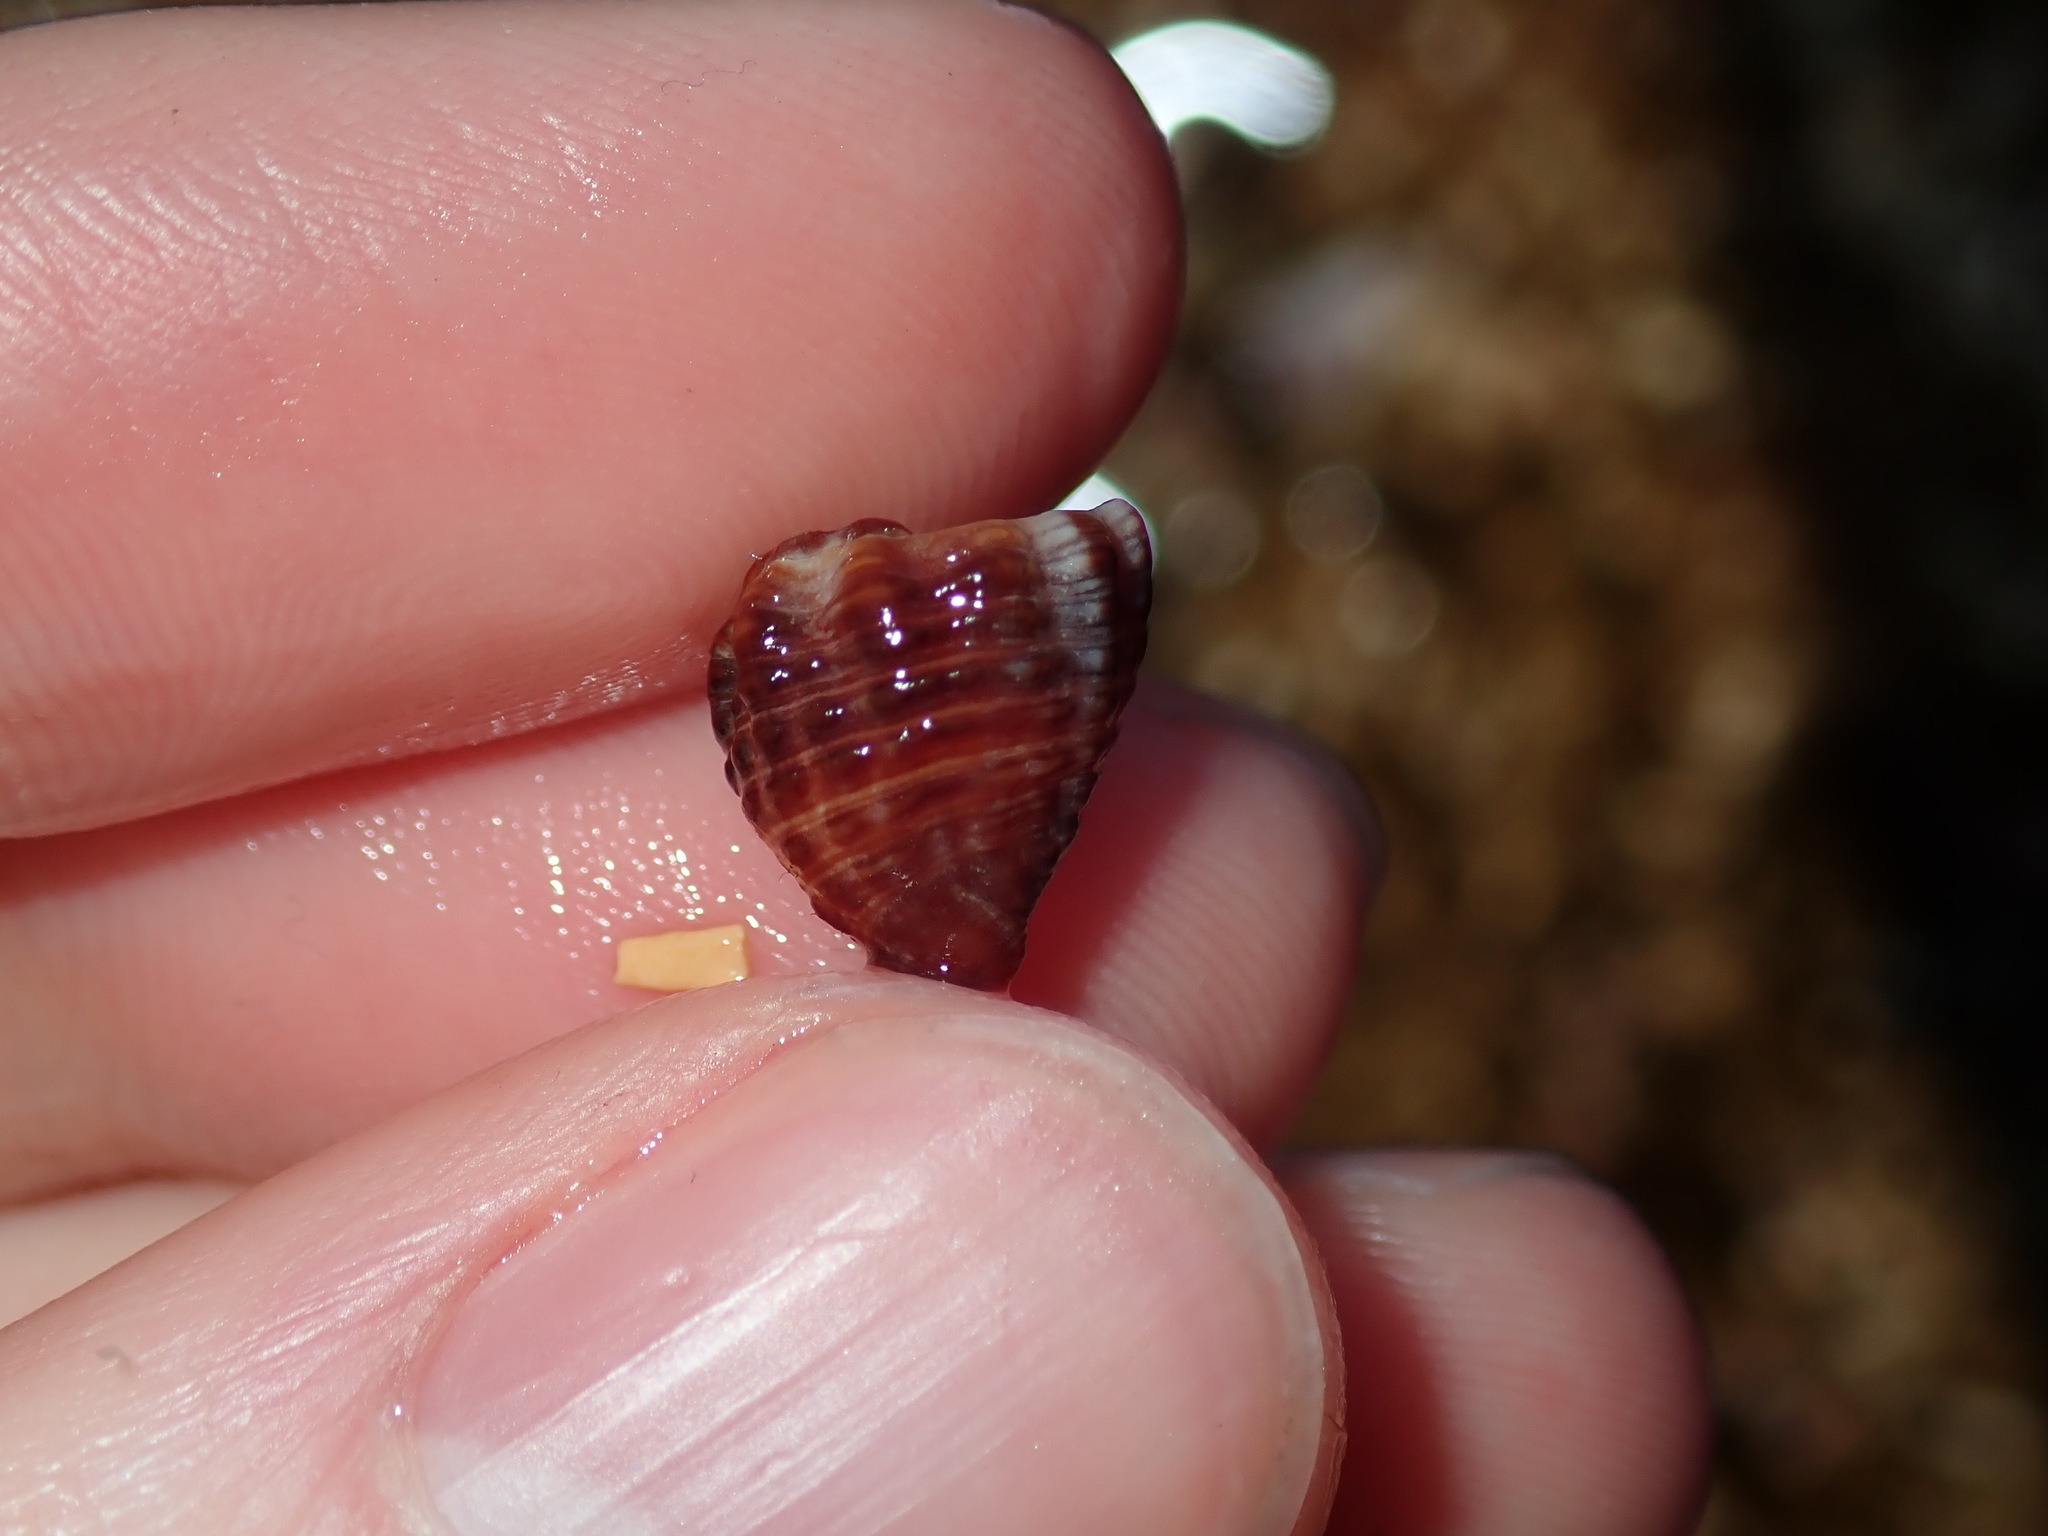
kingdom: Animalia
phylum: Mollusca
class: Gastropoda
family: Batillariidae
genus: Batillaria
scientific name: Batillaria australis
